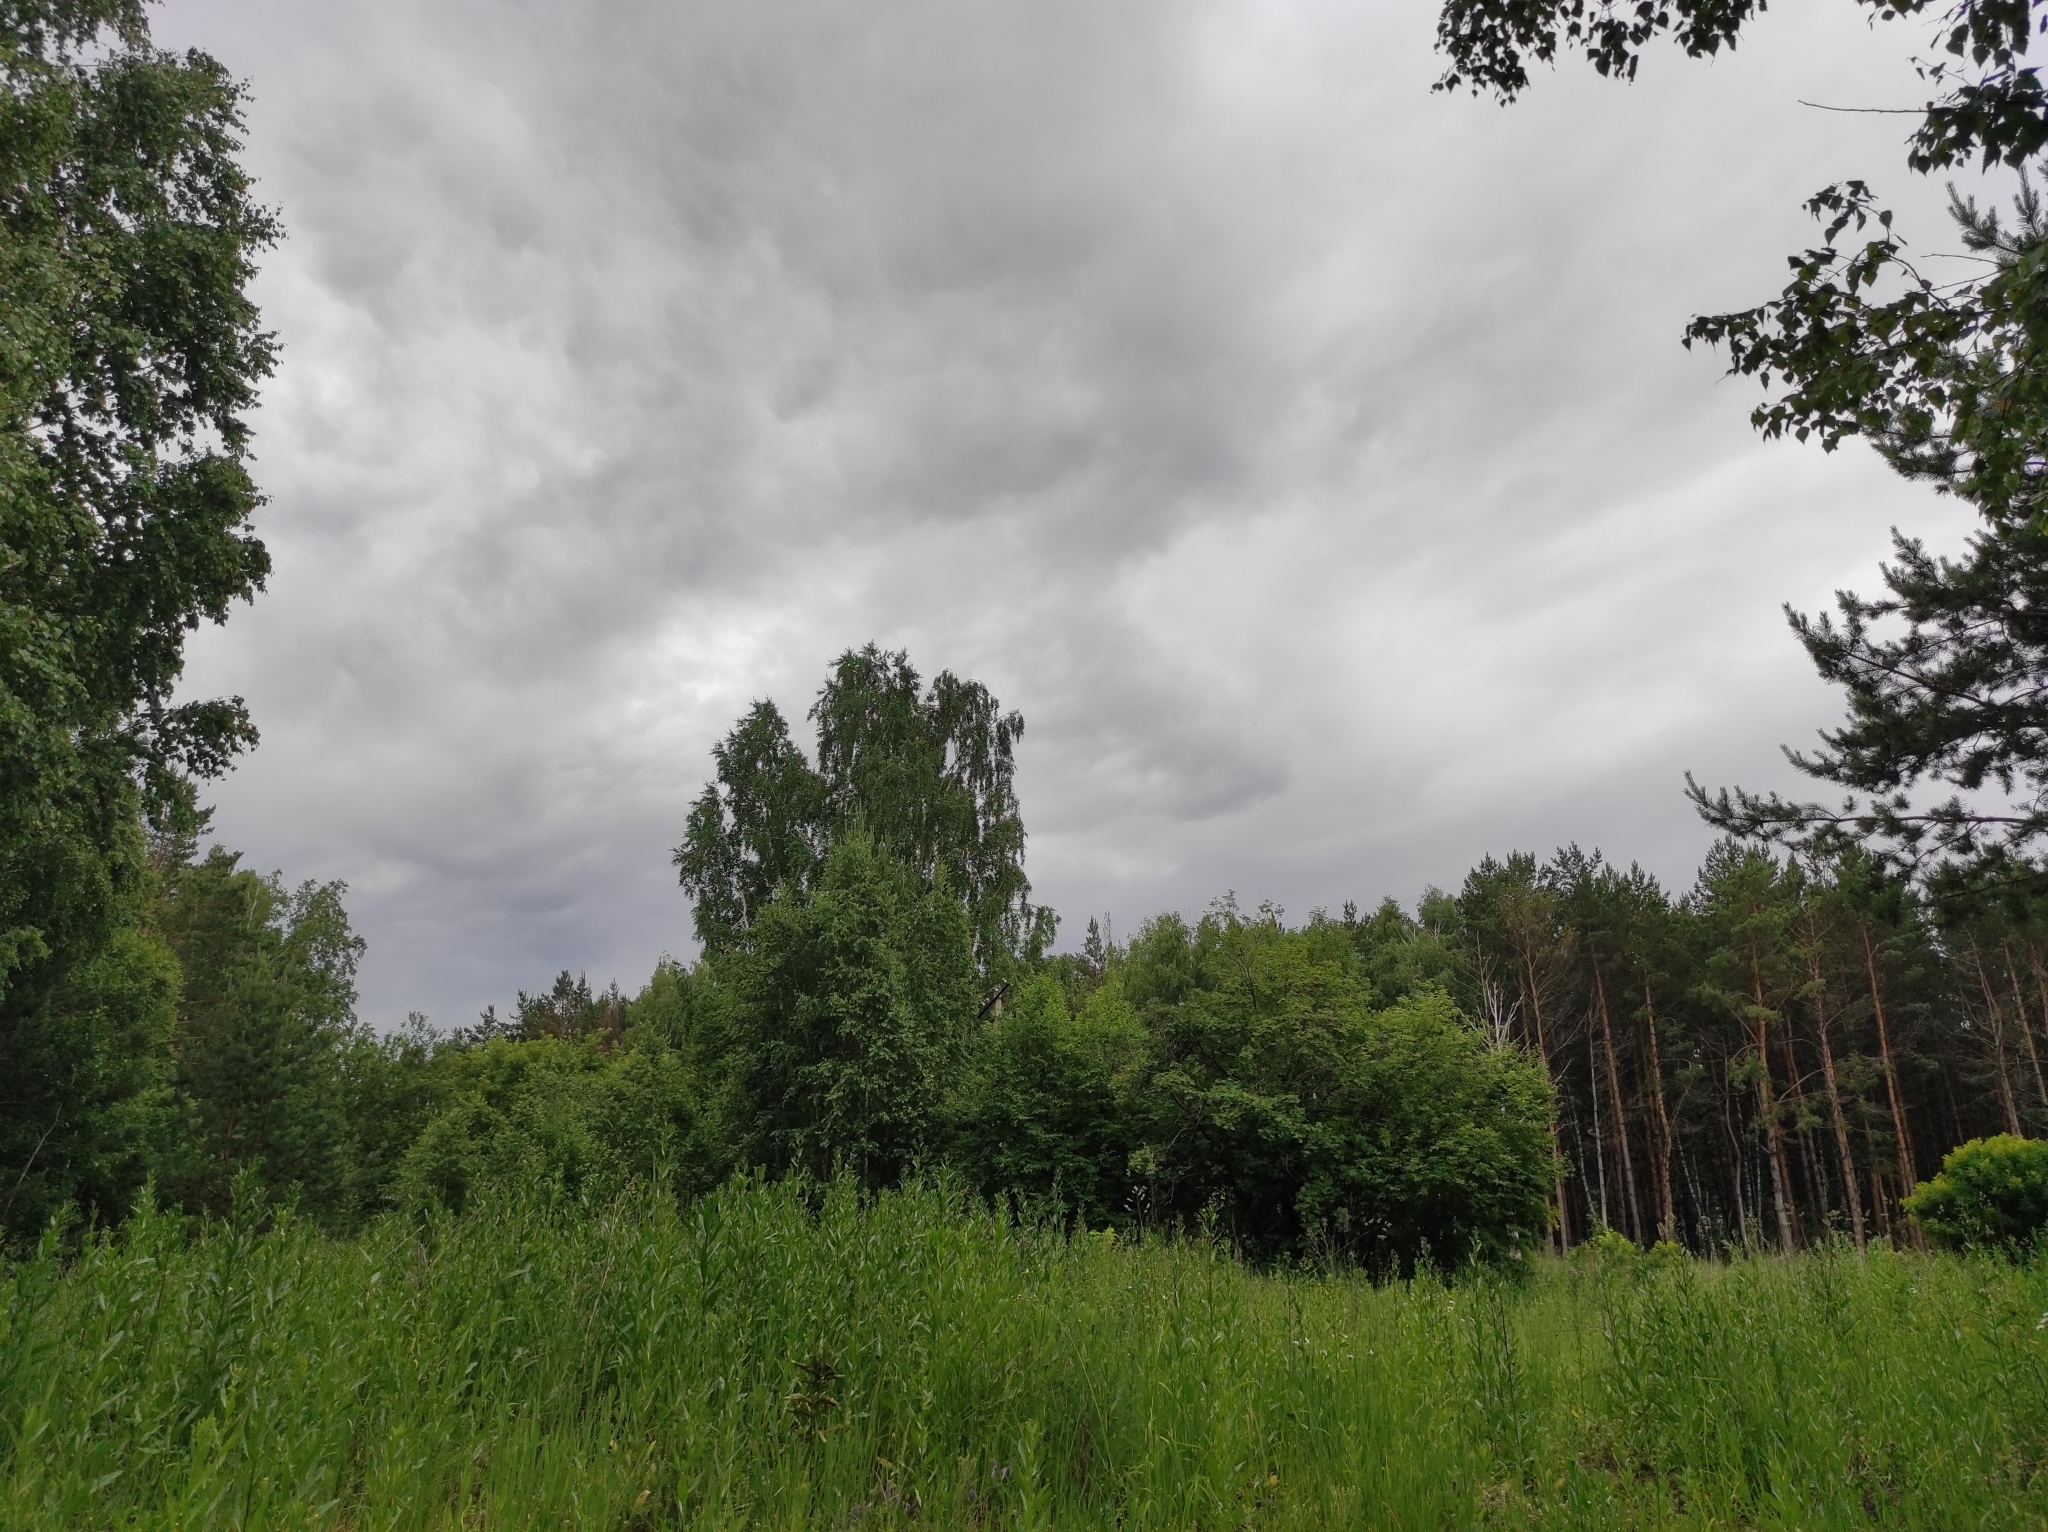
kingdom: Plantae
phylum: Tracheophyta
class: Magnoliopsida
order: Fagales
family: Betulaceae
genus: Betula
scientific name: Betula pendula
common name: Silver birch
